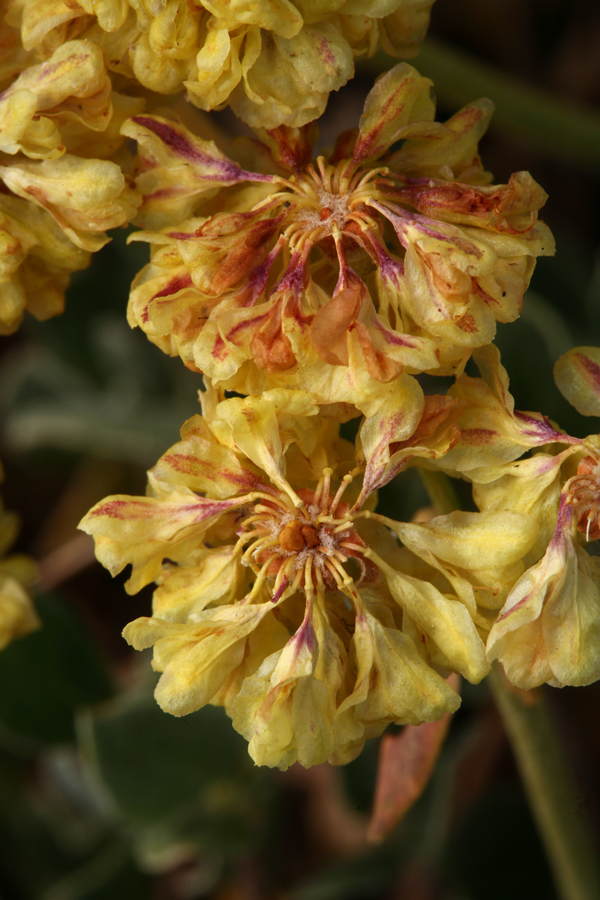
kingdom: Plantae
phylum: Tracheophyta
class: Magnoliopsida
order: Caryophyllales
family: Polygonaceae
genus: Eriogonum
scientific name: Eriogonum umbellatum
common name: Sulfur-buckwheat
